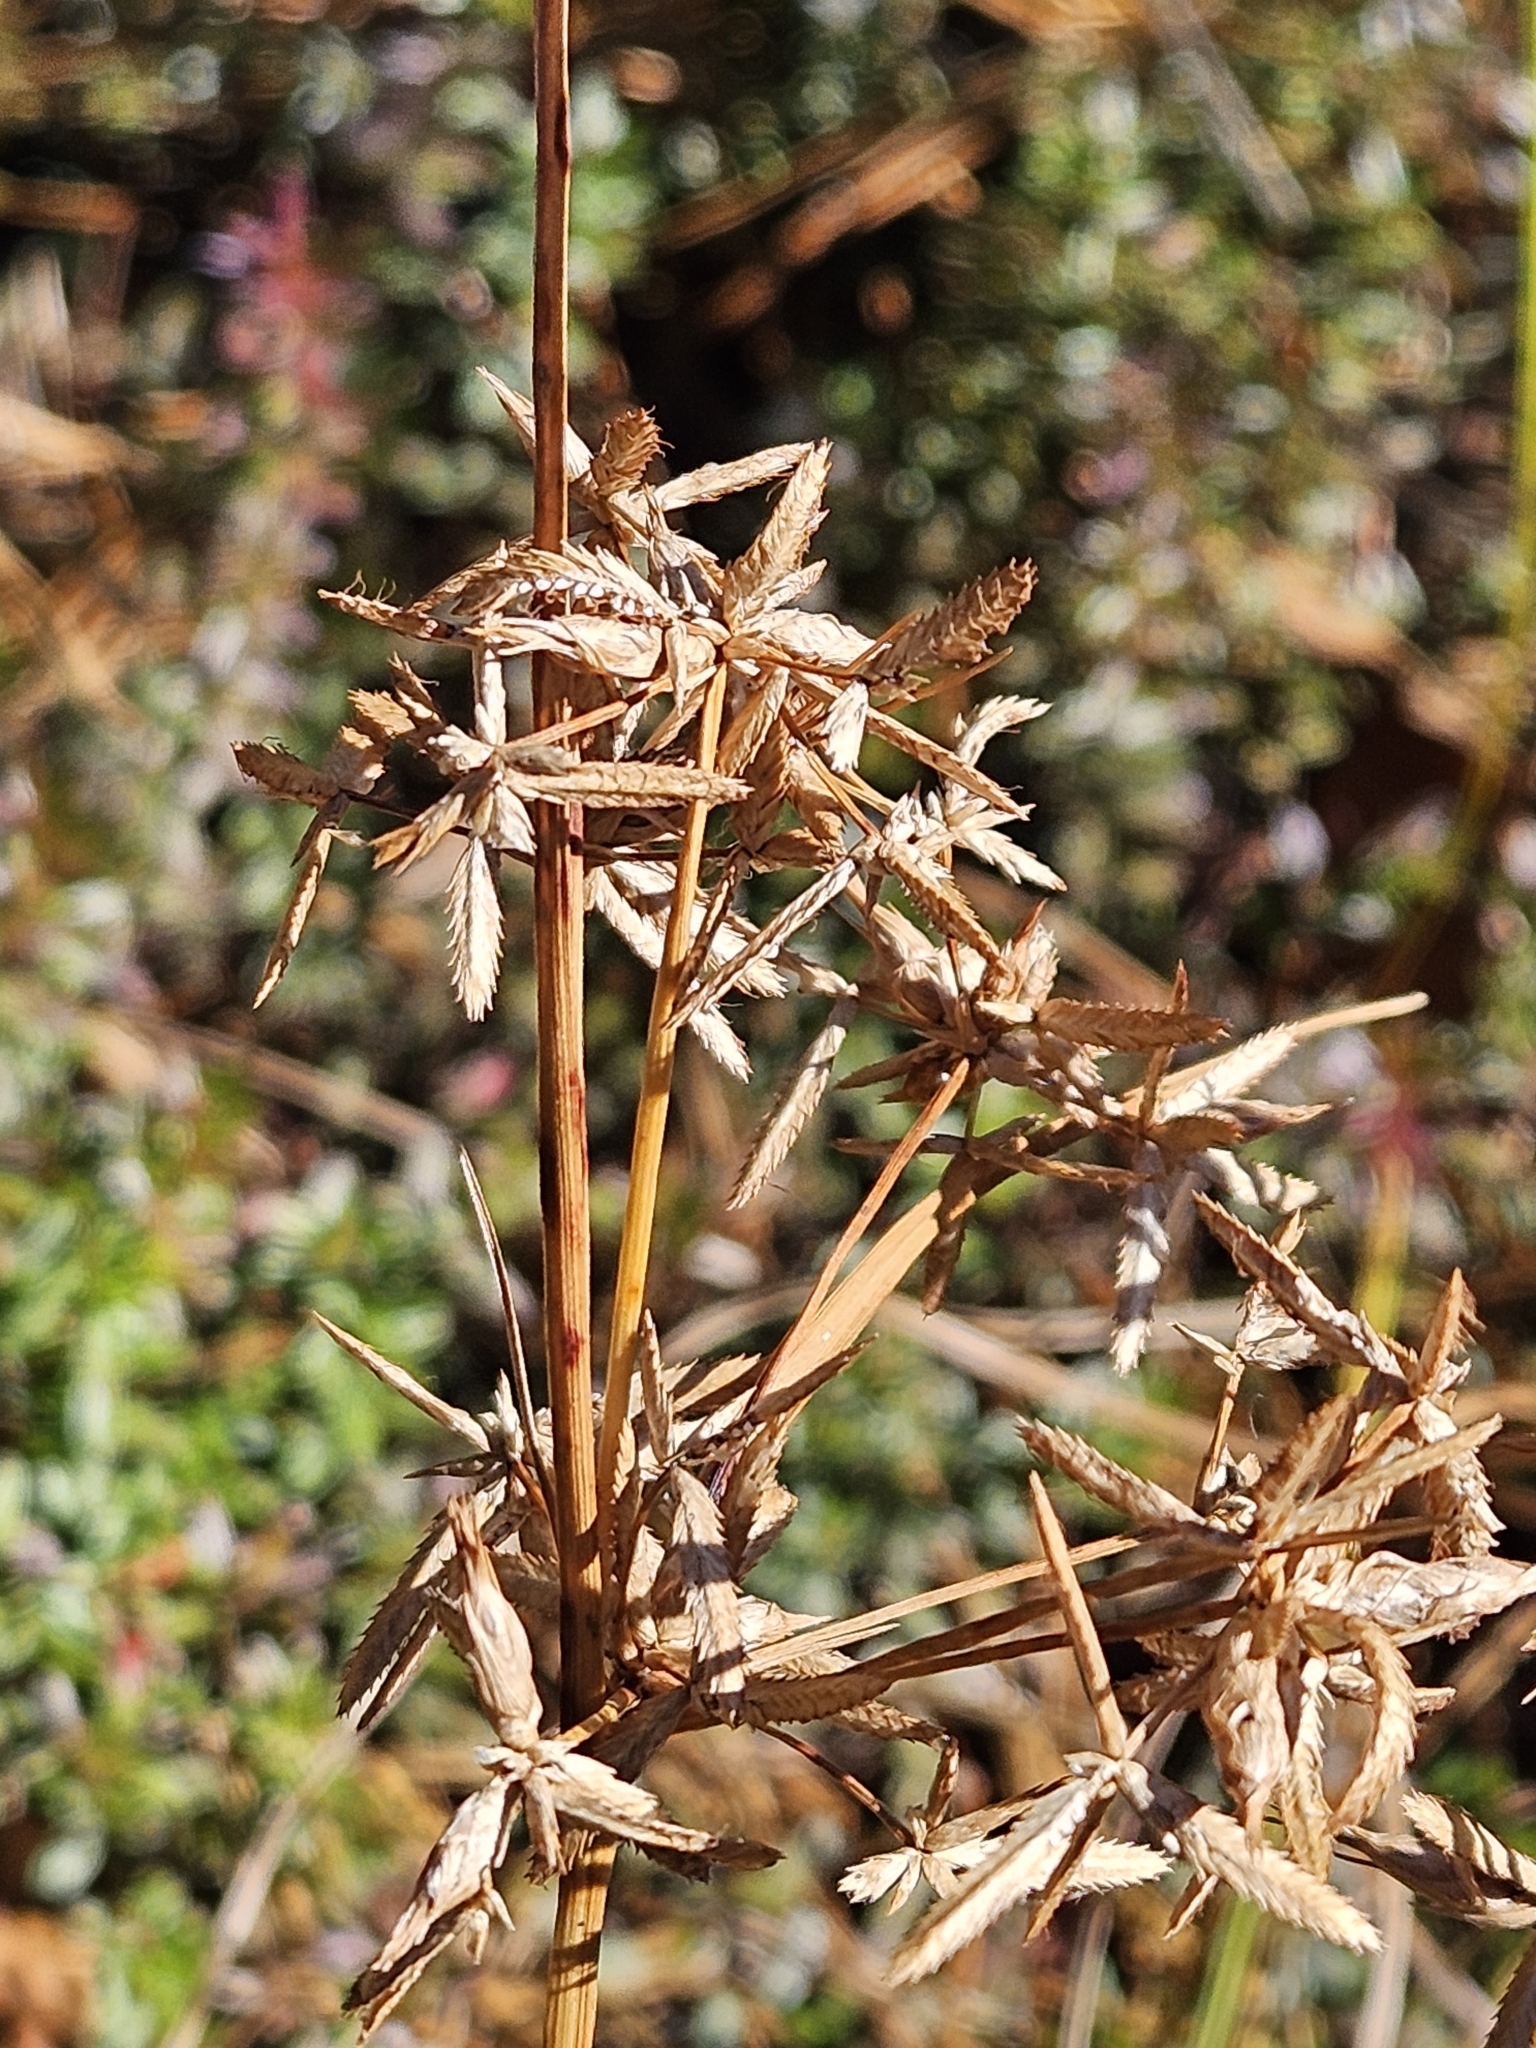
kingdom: Plantae
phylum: Tracheophyta
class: Liliopsida
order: Poales
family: Cyperaceae
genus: Cyperus
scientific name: Cyperus dentatus
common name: Dentate umbrella sedge
